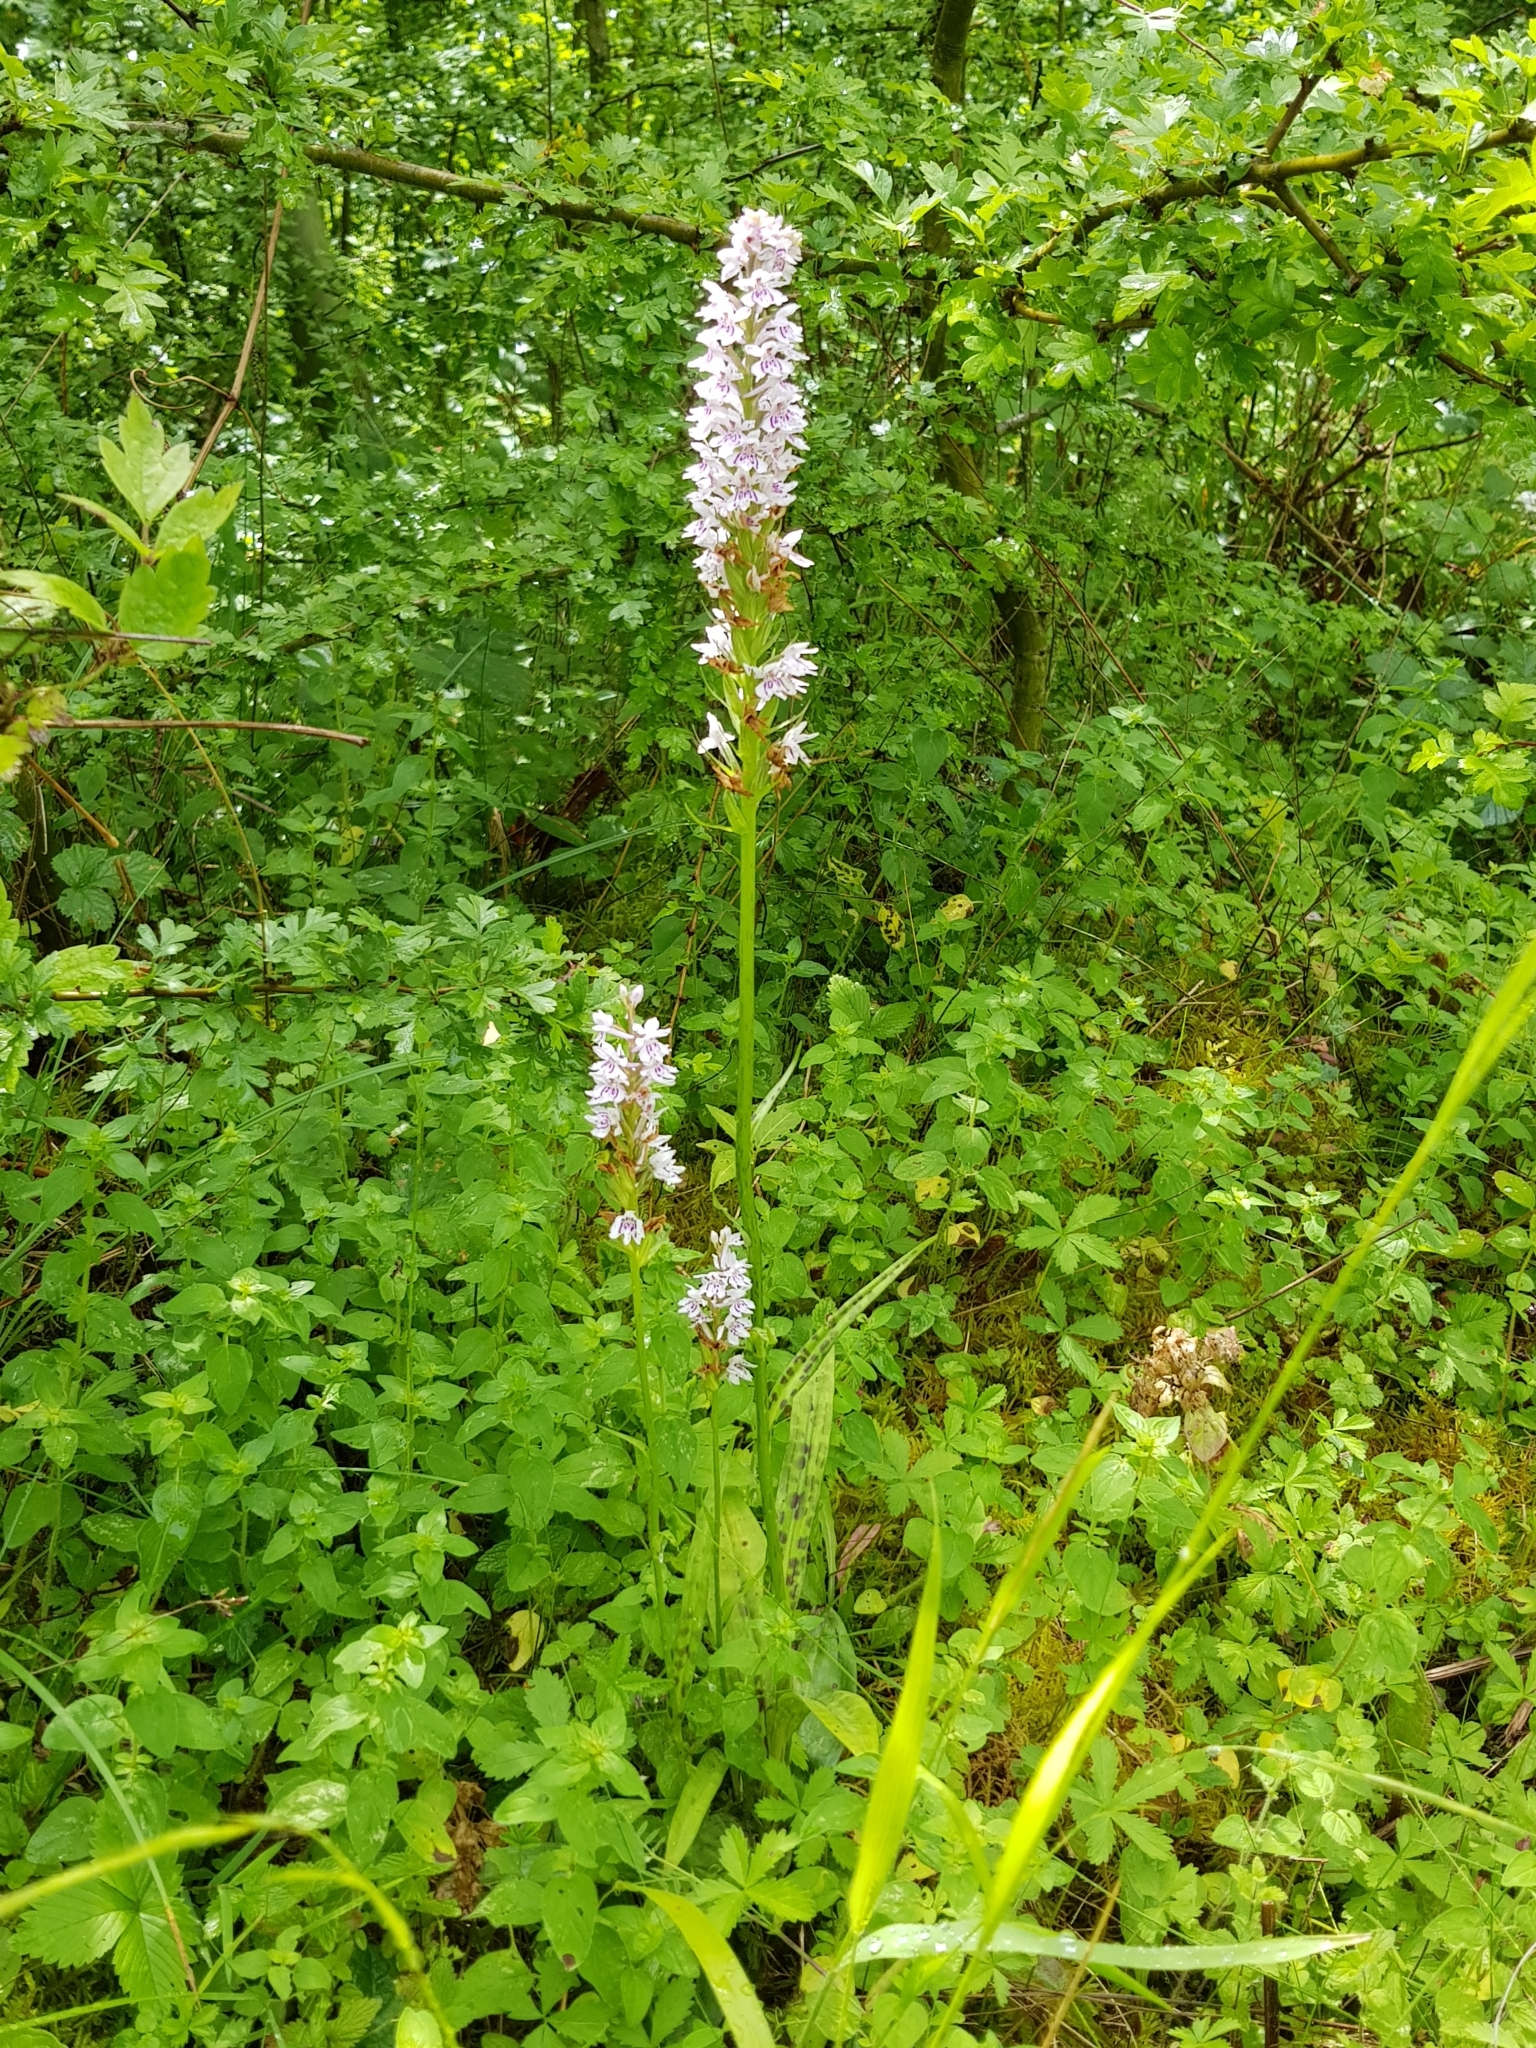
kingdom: Plantae
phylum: Tracheophyta
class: Liliopsida
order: Asparagales
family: Orchidaceae
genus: Dactylorhiza
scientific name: Dactylorhiza maculata
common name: Heath spotted-orchid
